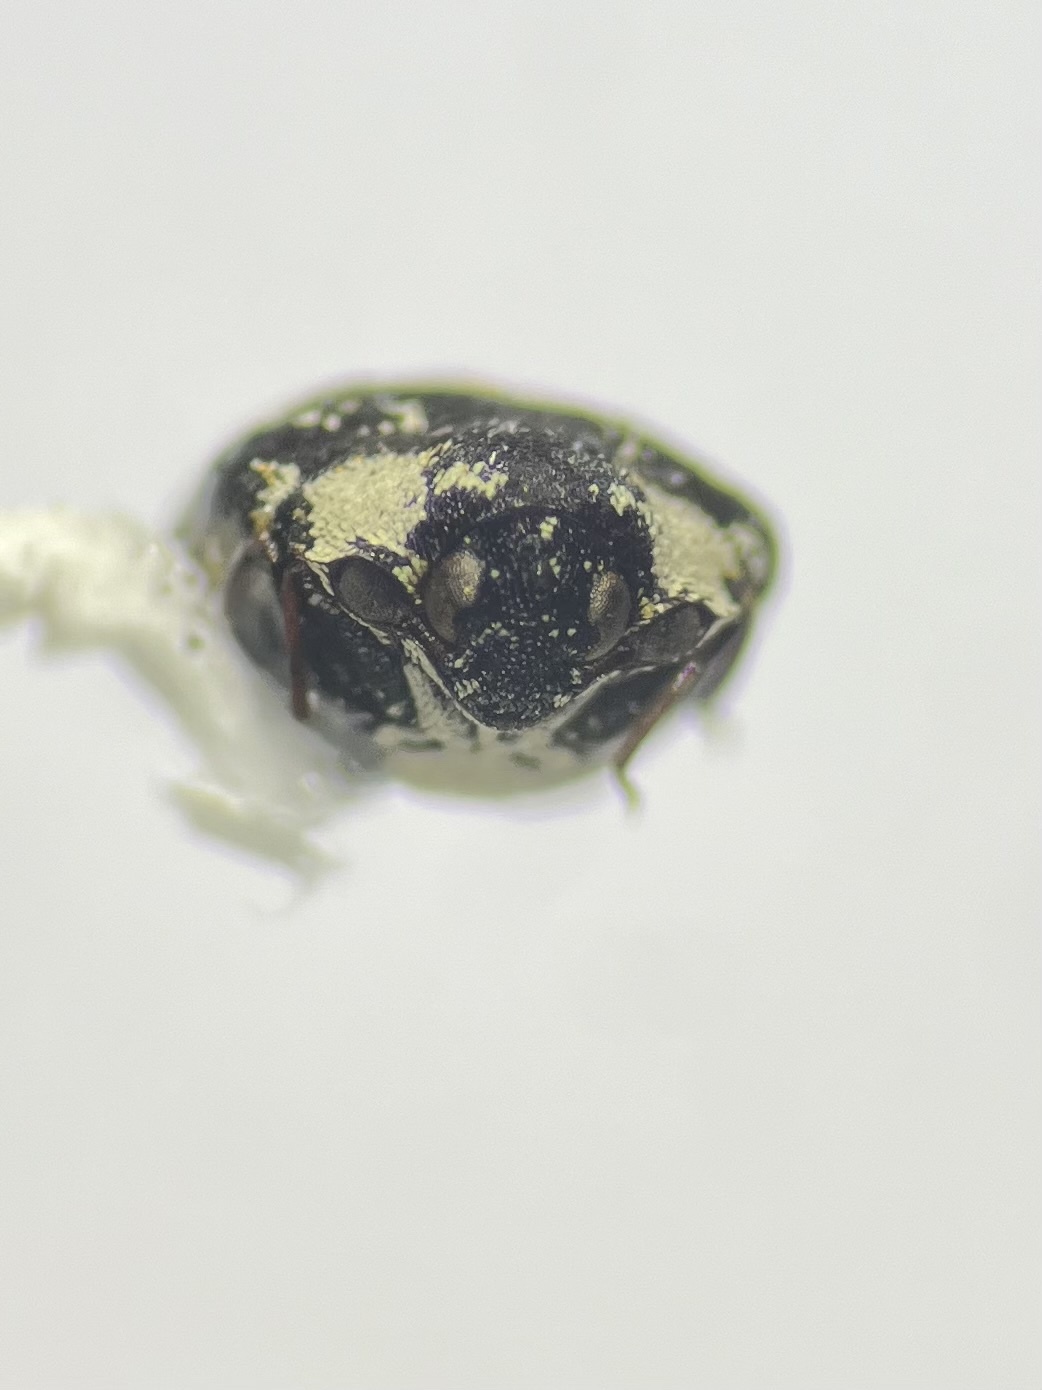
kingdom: Animalia
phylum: Arthropoda
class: Insecta
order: Coleoptera
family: Dermestidae
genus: Anthrenus
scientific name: Anthrenus thoracicus
